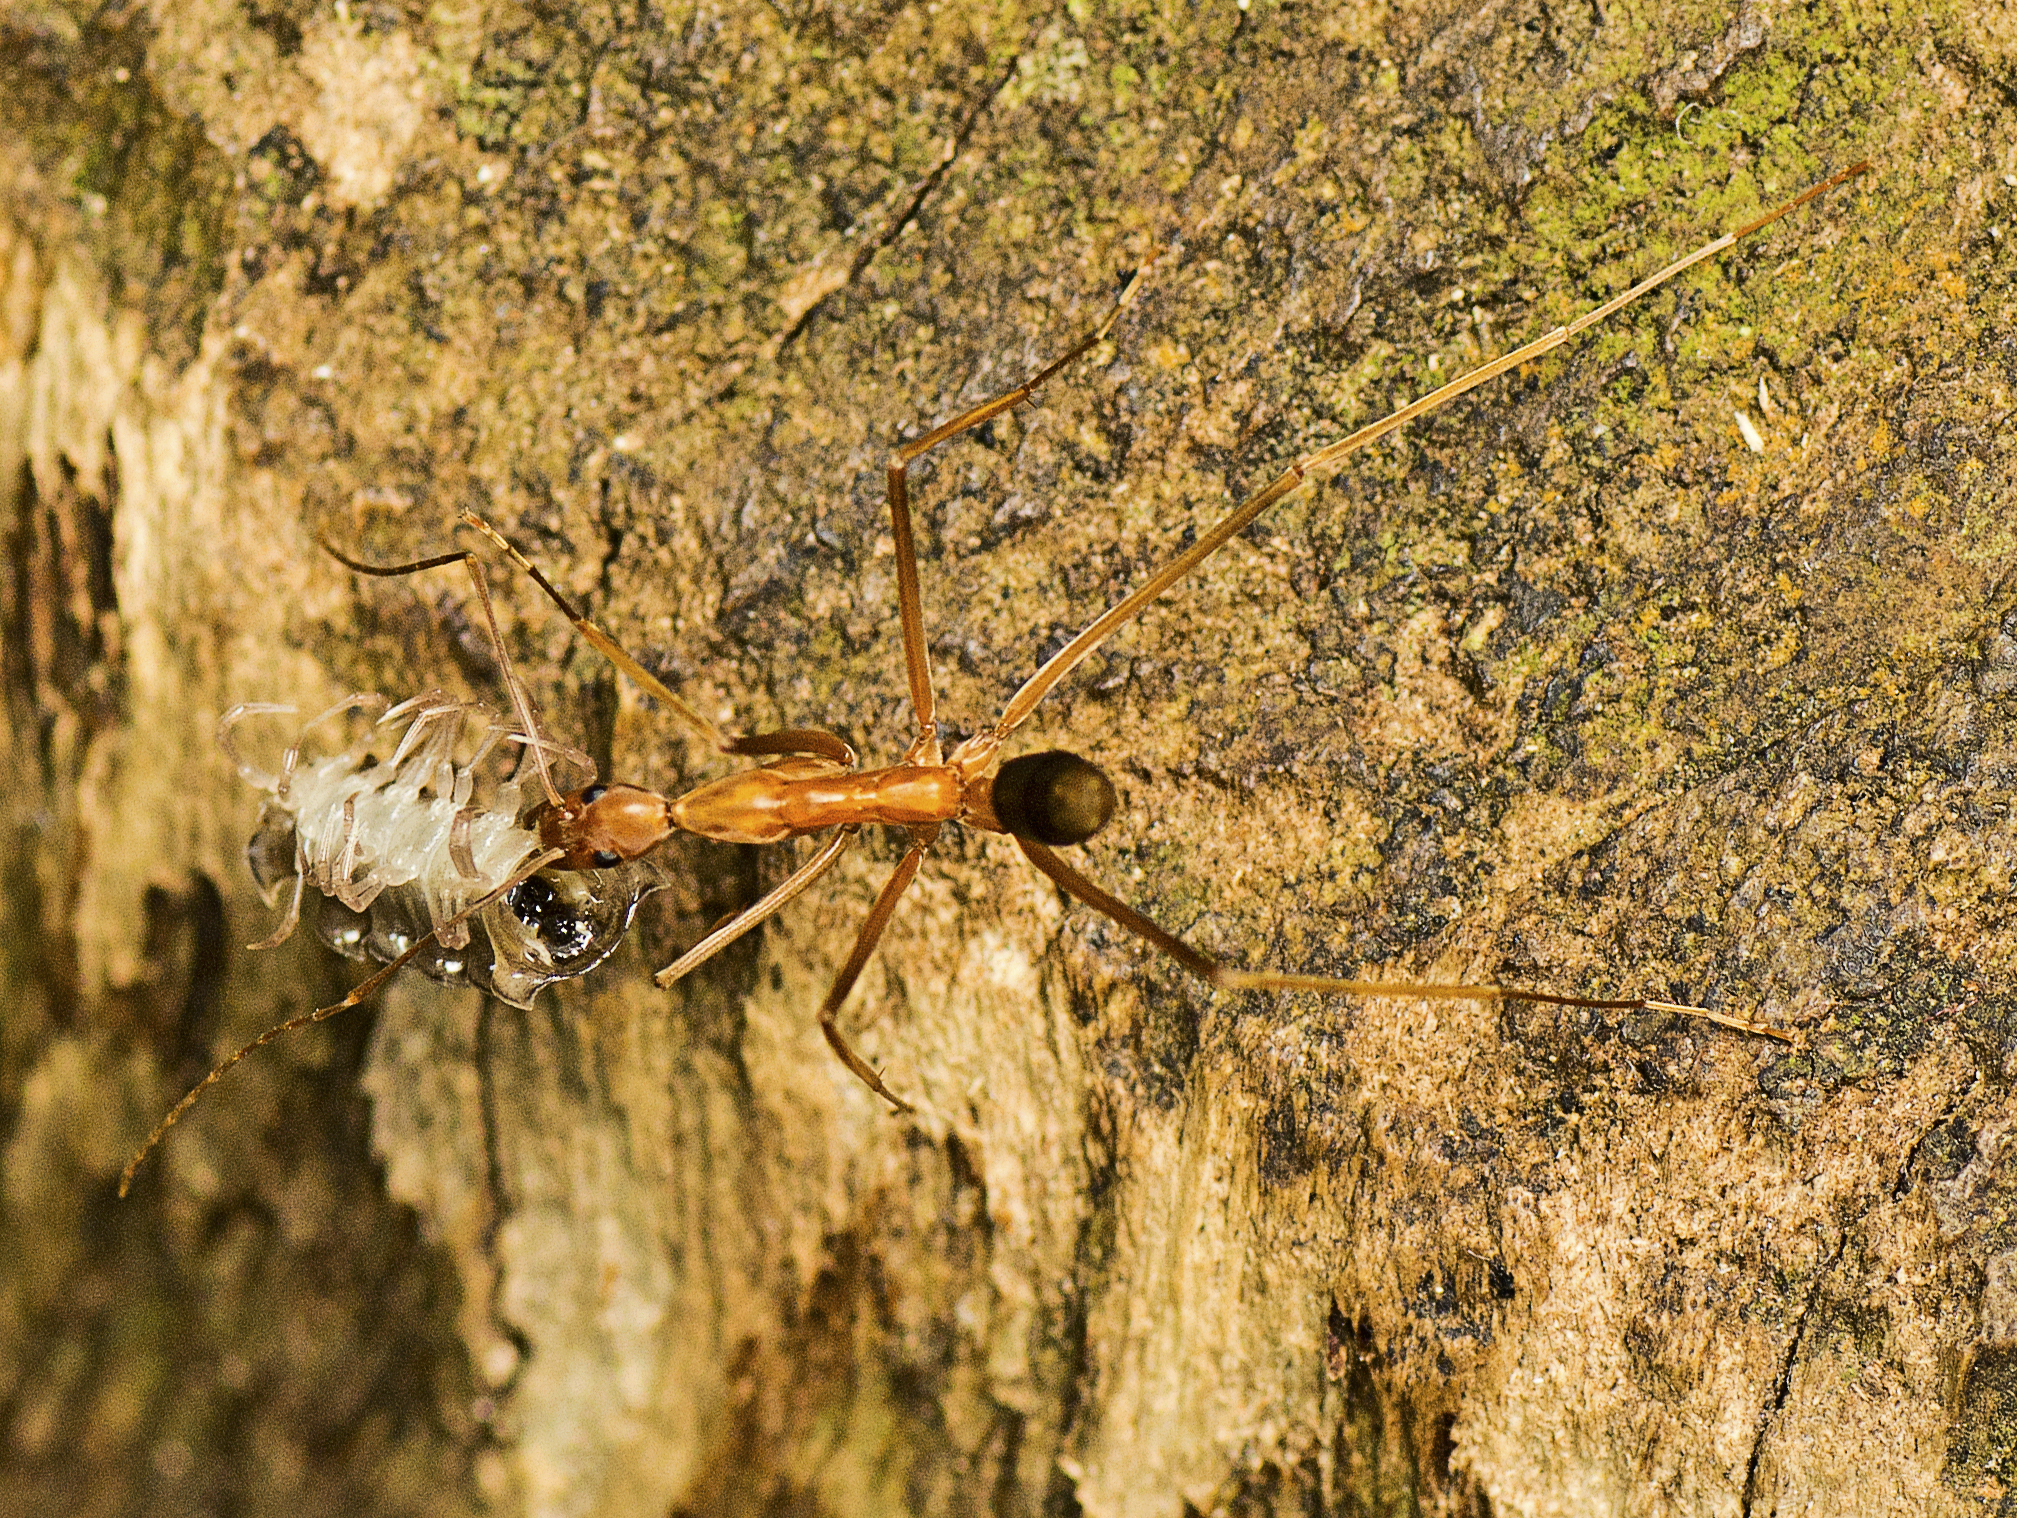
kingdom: Animalia
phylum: Arthropoda
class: Insecta
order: Hymenoptera
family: Formicidae
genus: Leptomyrmex
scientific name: Leptomyrmex rufipes
